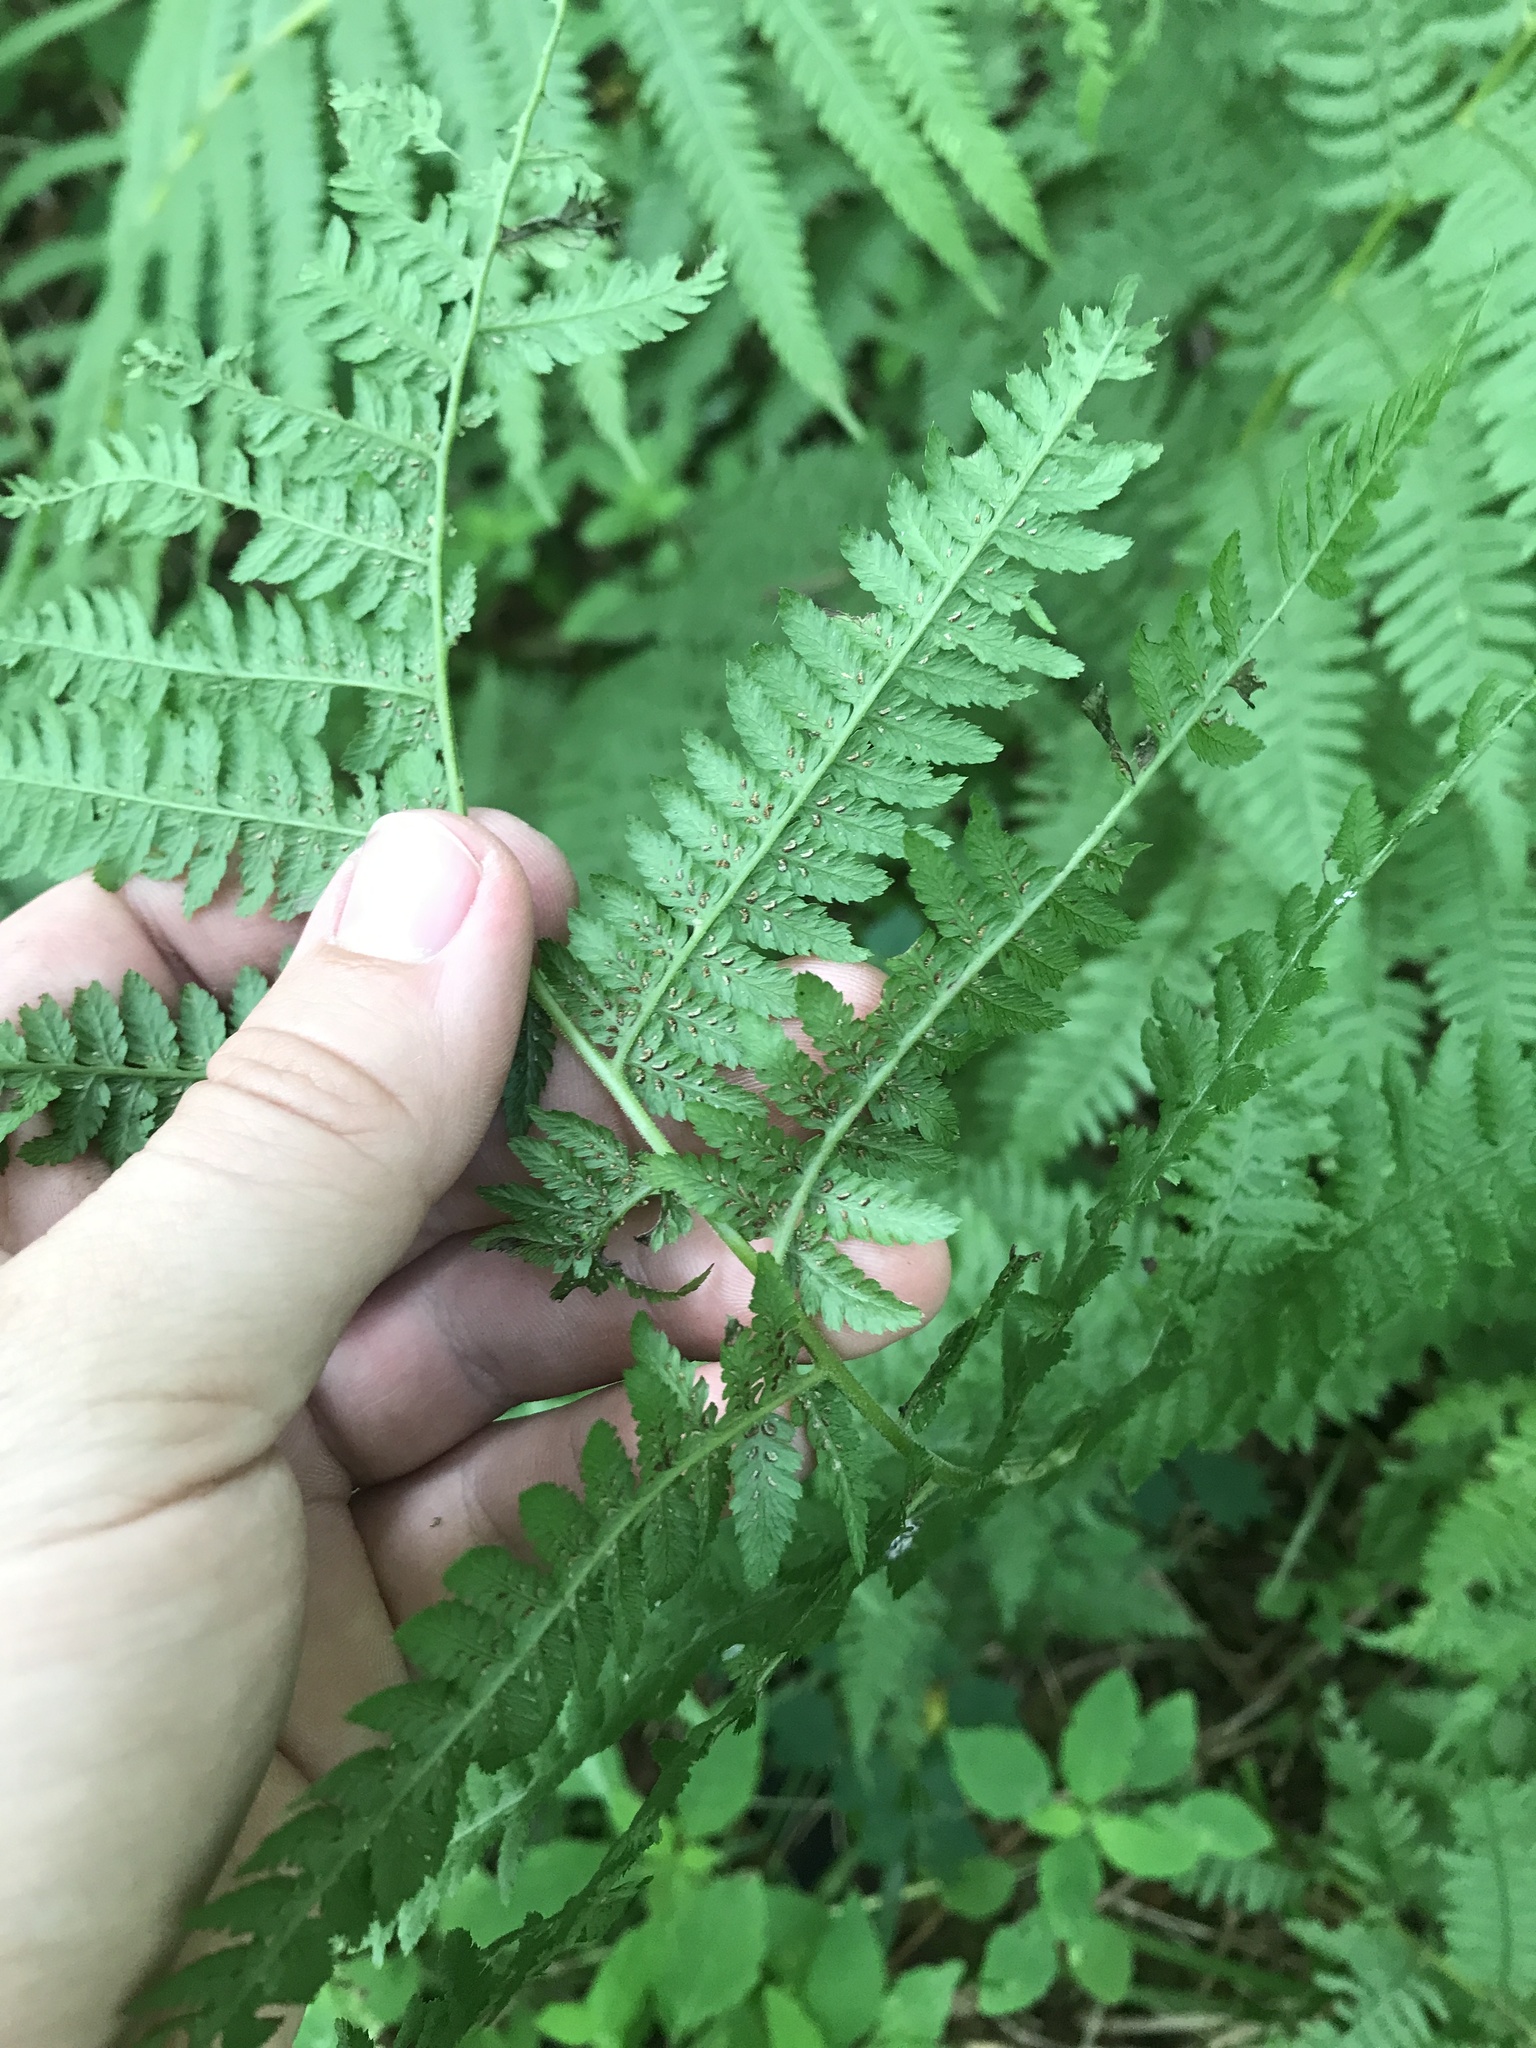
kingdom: Plantae
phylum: Tracheophyta
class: Polypodiopsida
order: Polypodiales
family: Athyriaceae
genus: Athyrium
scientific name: Athyrium angustum
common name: Northern lady fern
